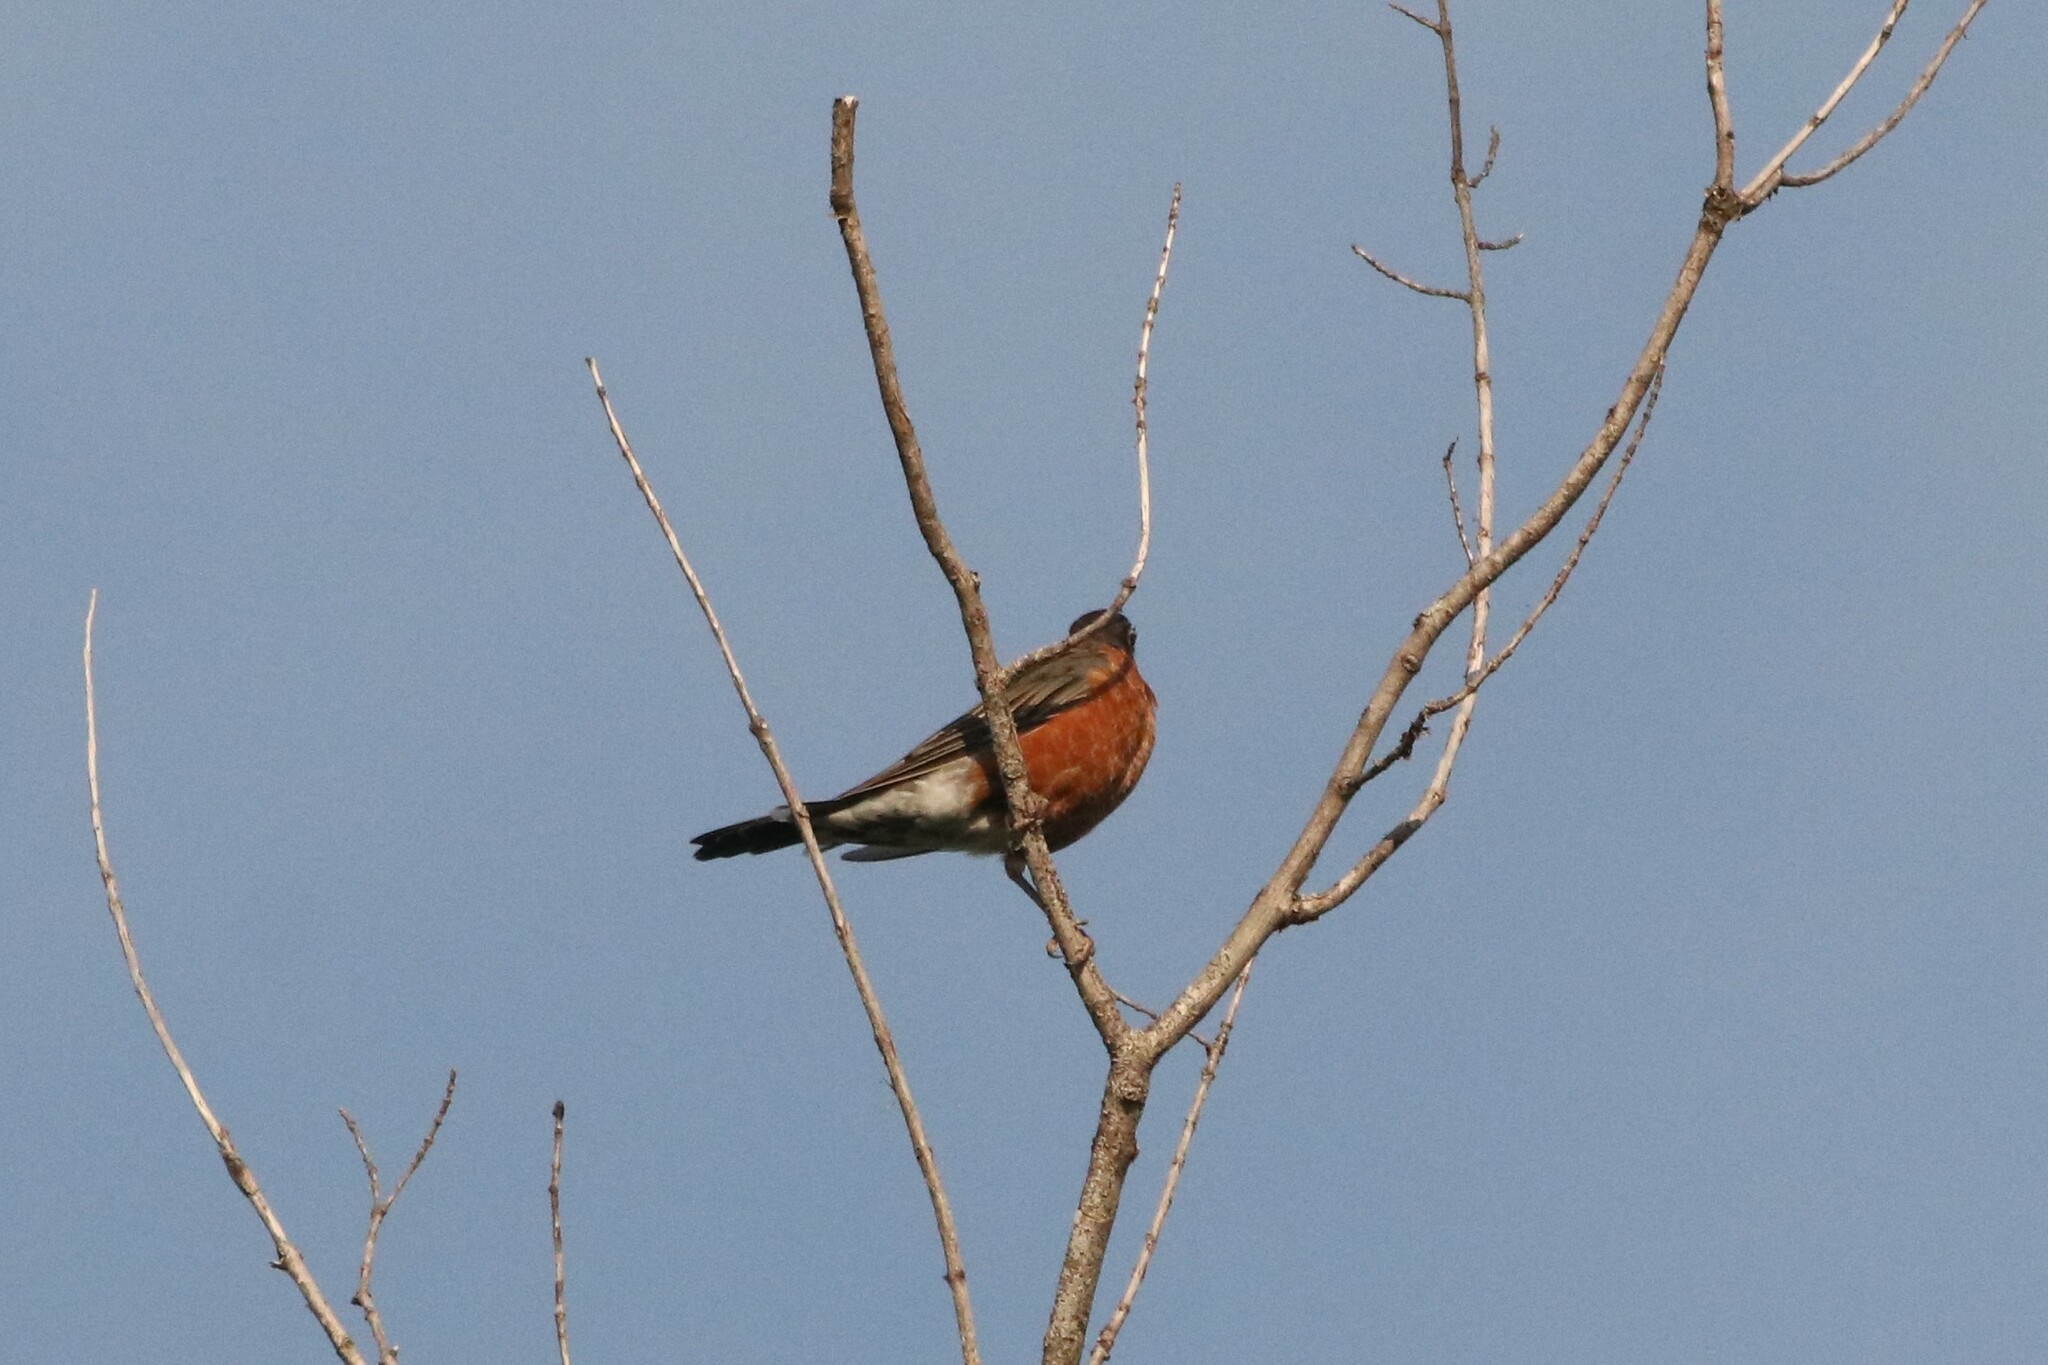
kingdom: Animalia
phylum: Chordata
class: Aves
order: Passeriformes
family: Turdidae
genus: Turdus
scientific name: Turdus migratorius
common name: American robin
